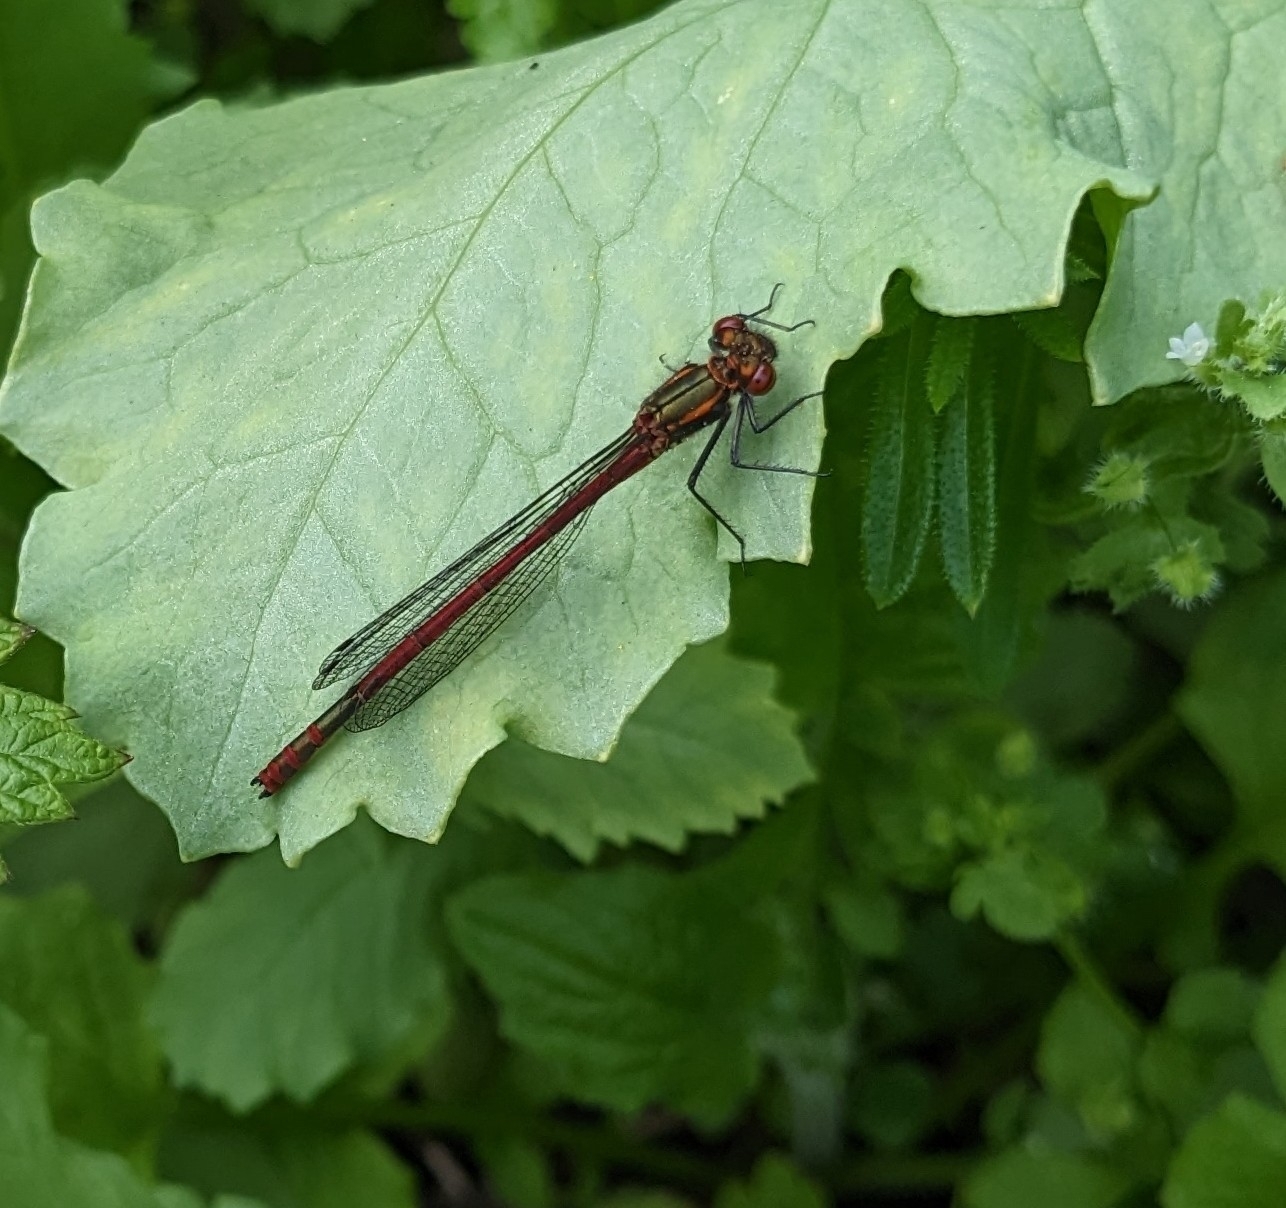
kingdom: Animalia
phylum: Arthropoda
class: Insecta
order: Odonata
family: Coenagrionidae
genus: Pyrrhosoma
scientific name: Pyrrhosoma nymphula
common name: Large red damsel
